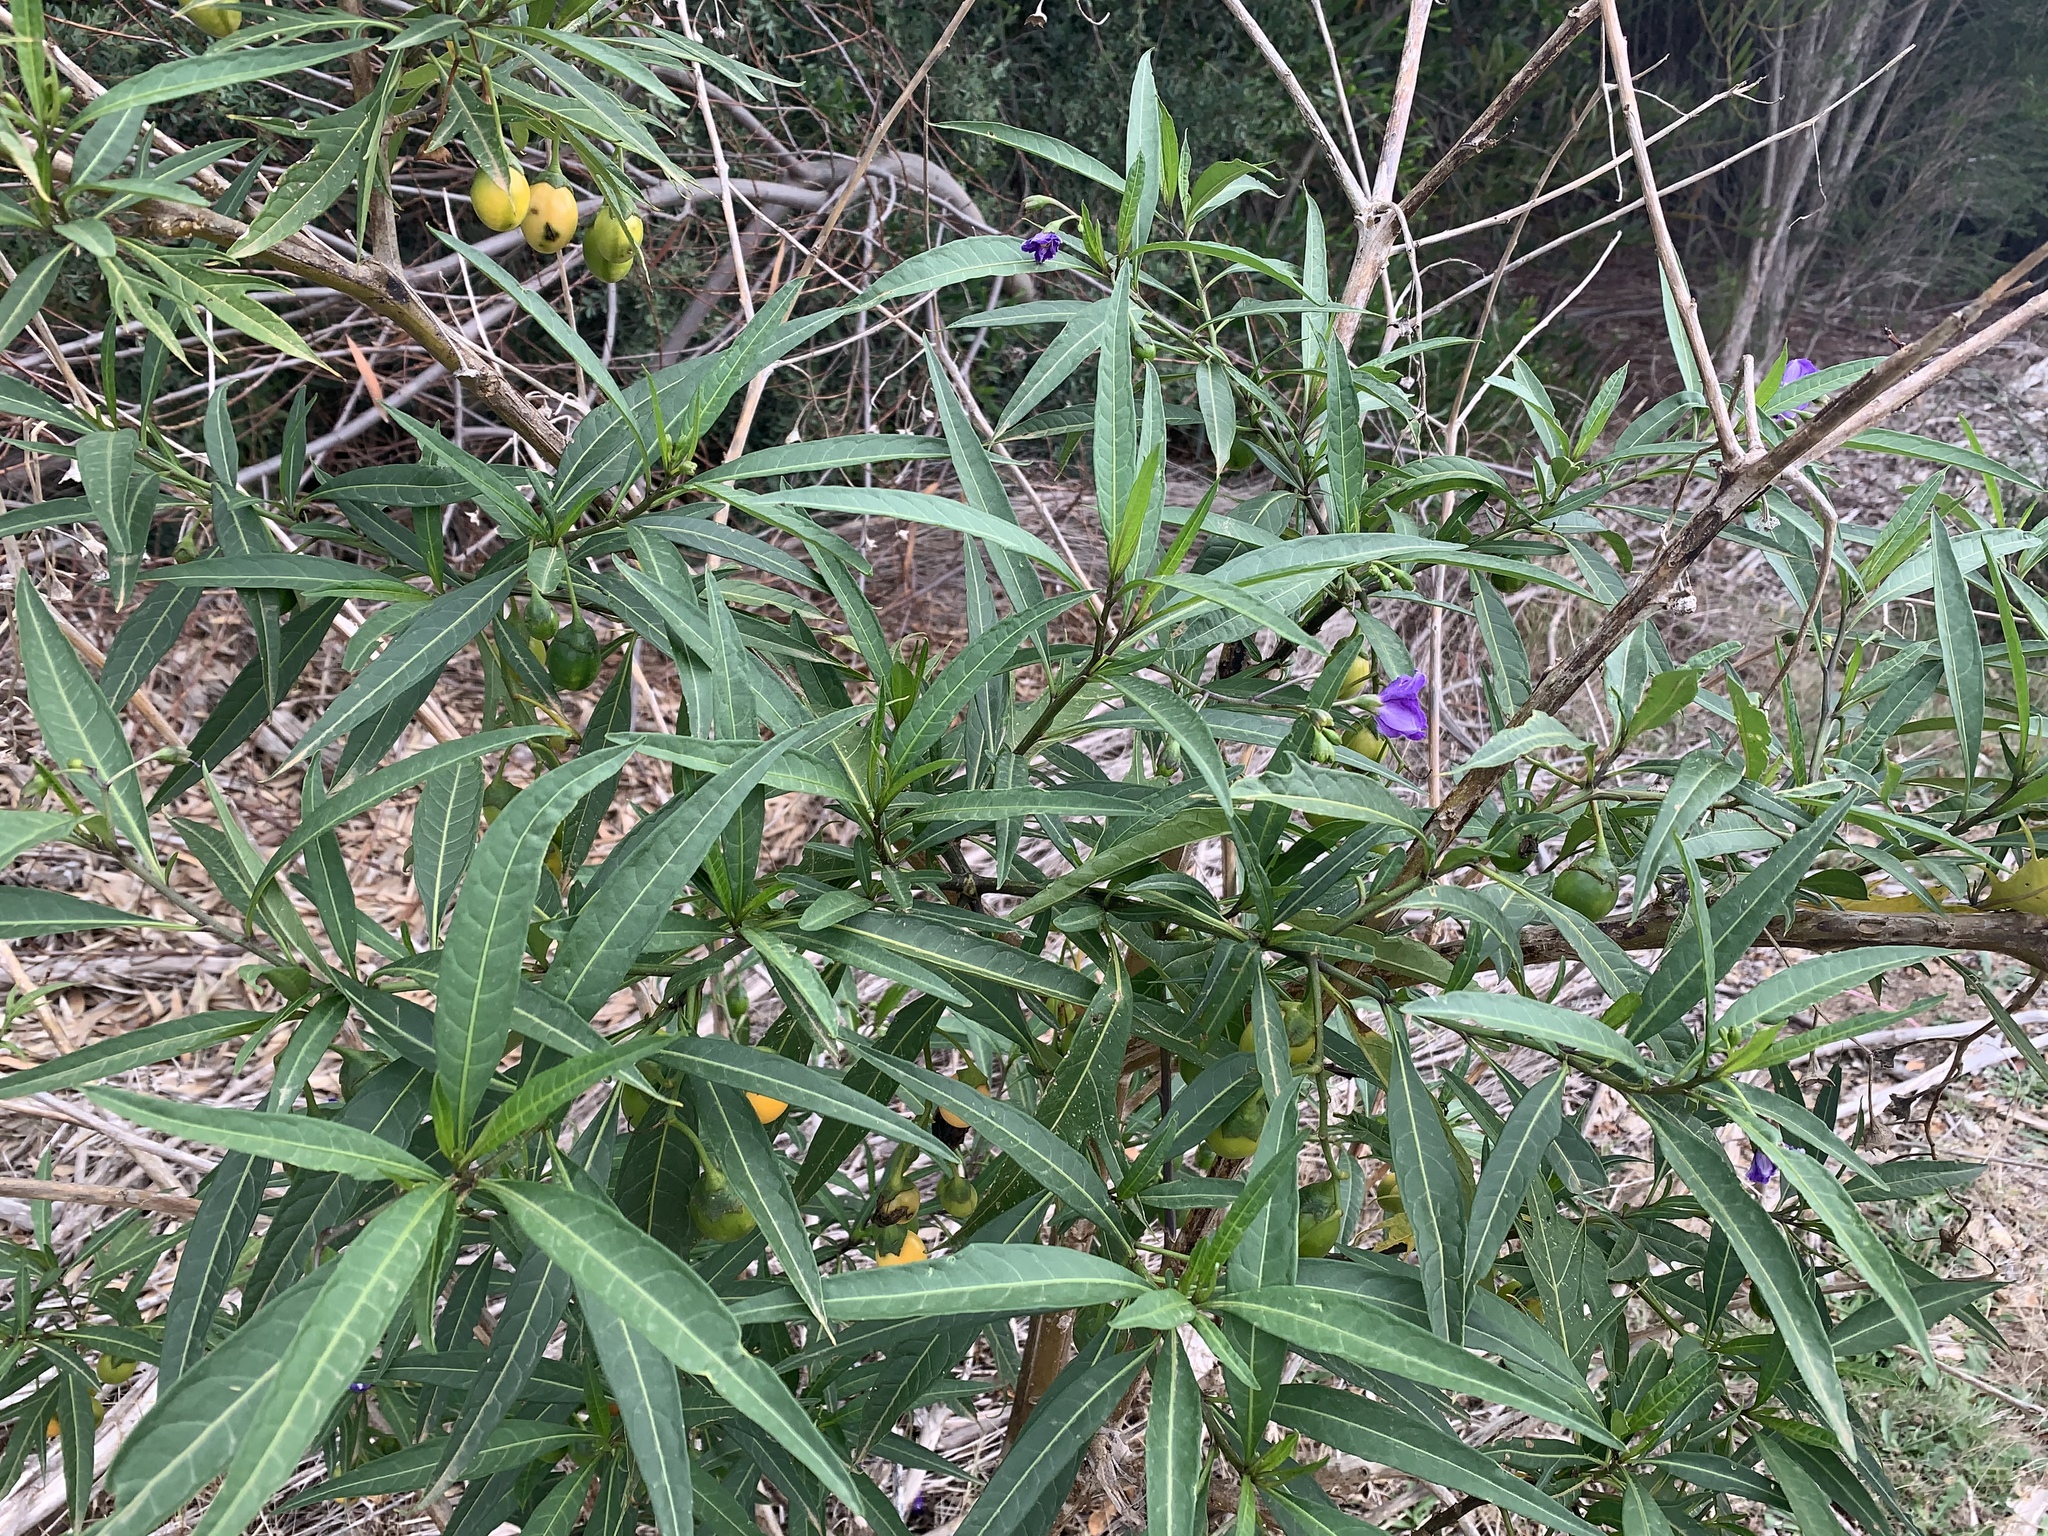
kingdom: Plantae
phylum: Tracheophyta
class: Magnoliopsida
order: Solanales
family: Solanaceae
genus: Solanum
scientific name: Solanum laciniatum
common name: Kangaroo-apple
